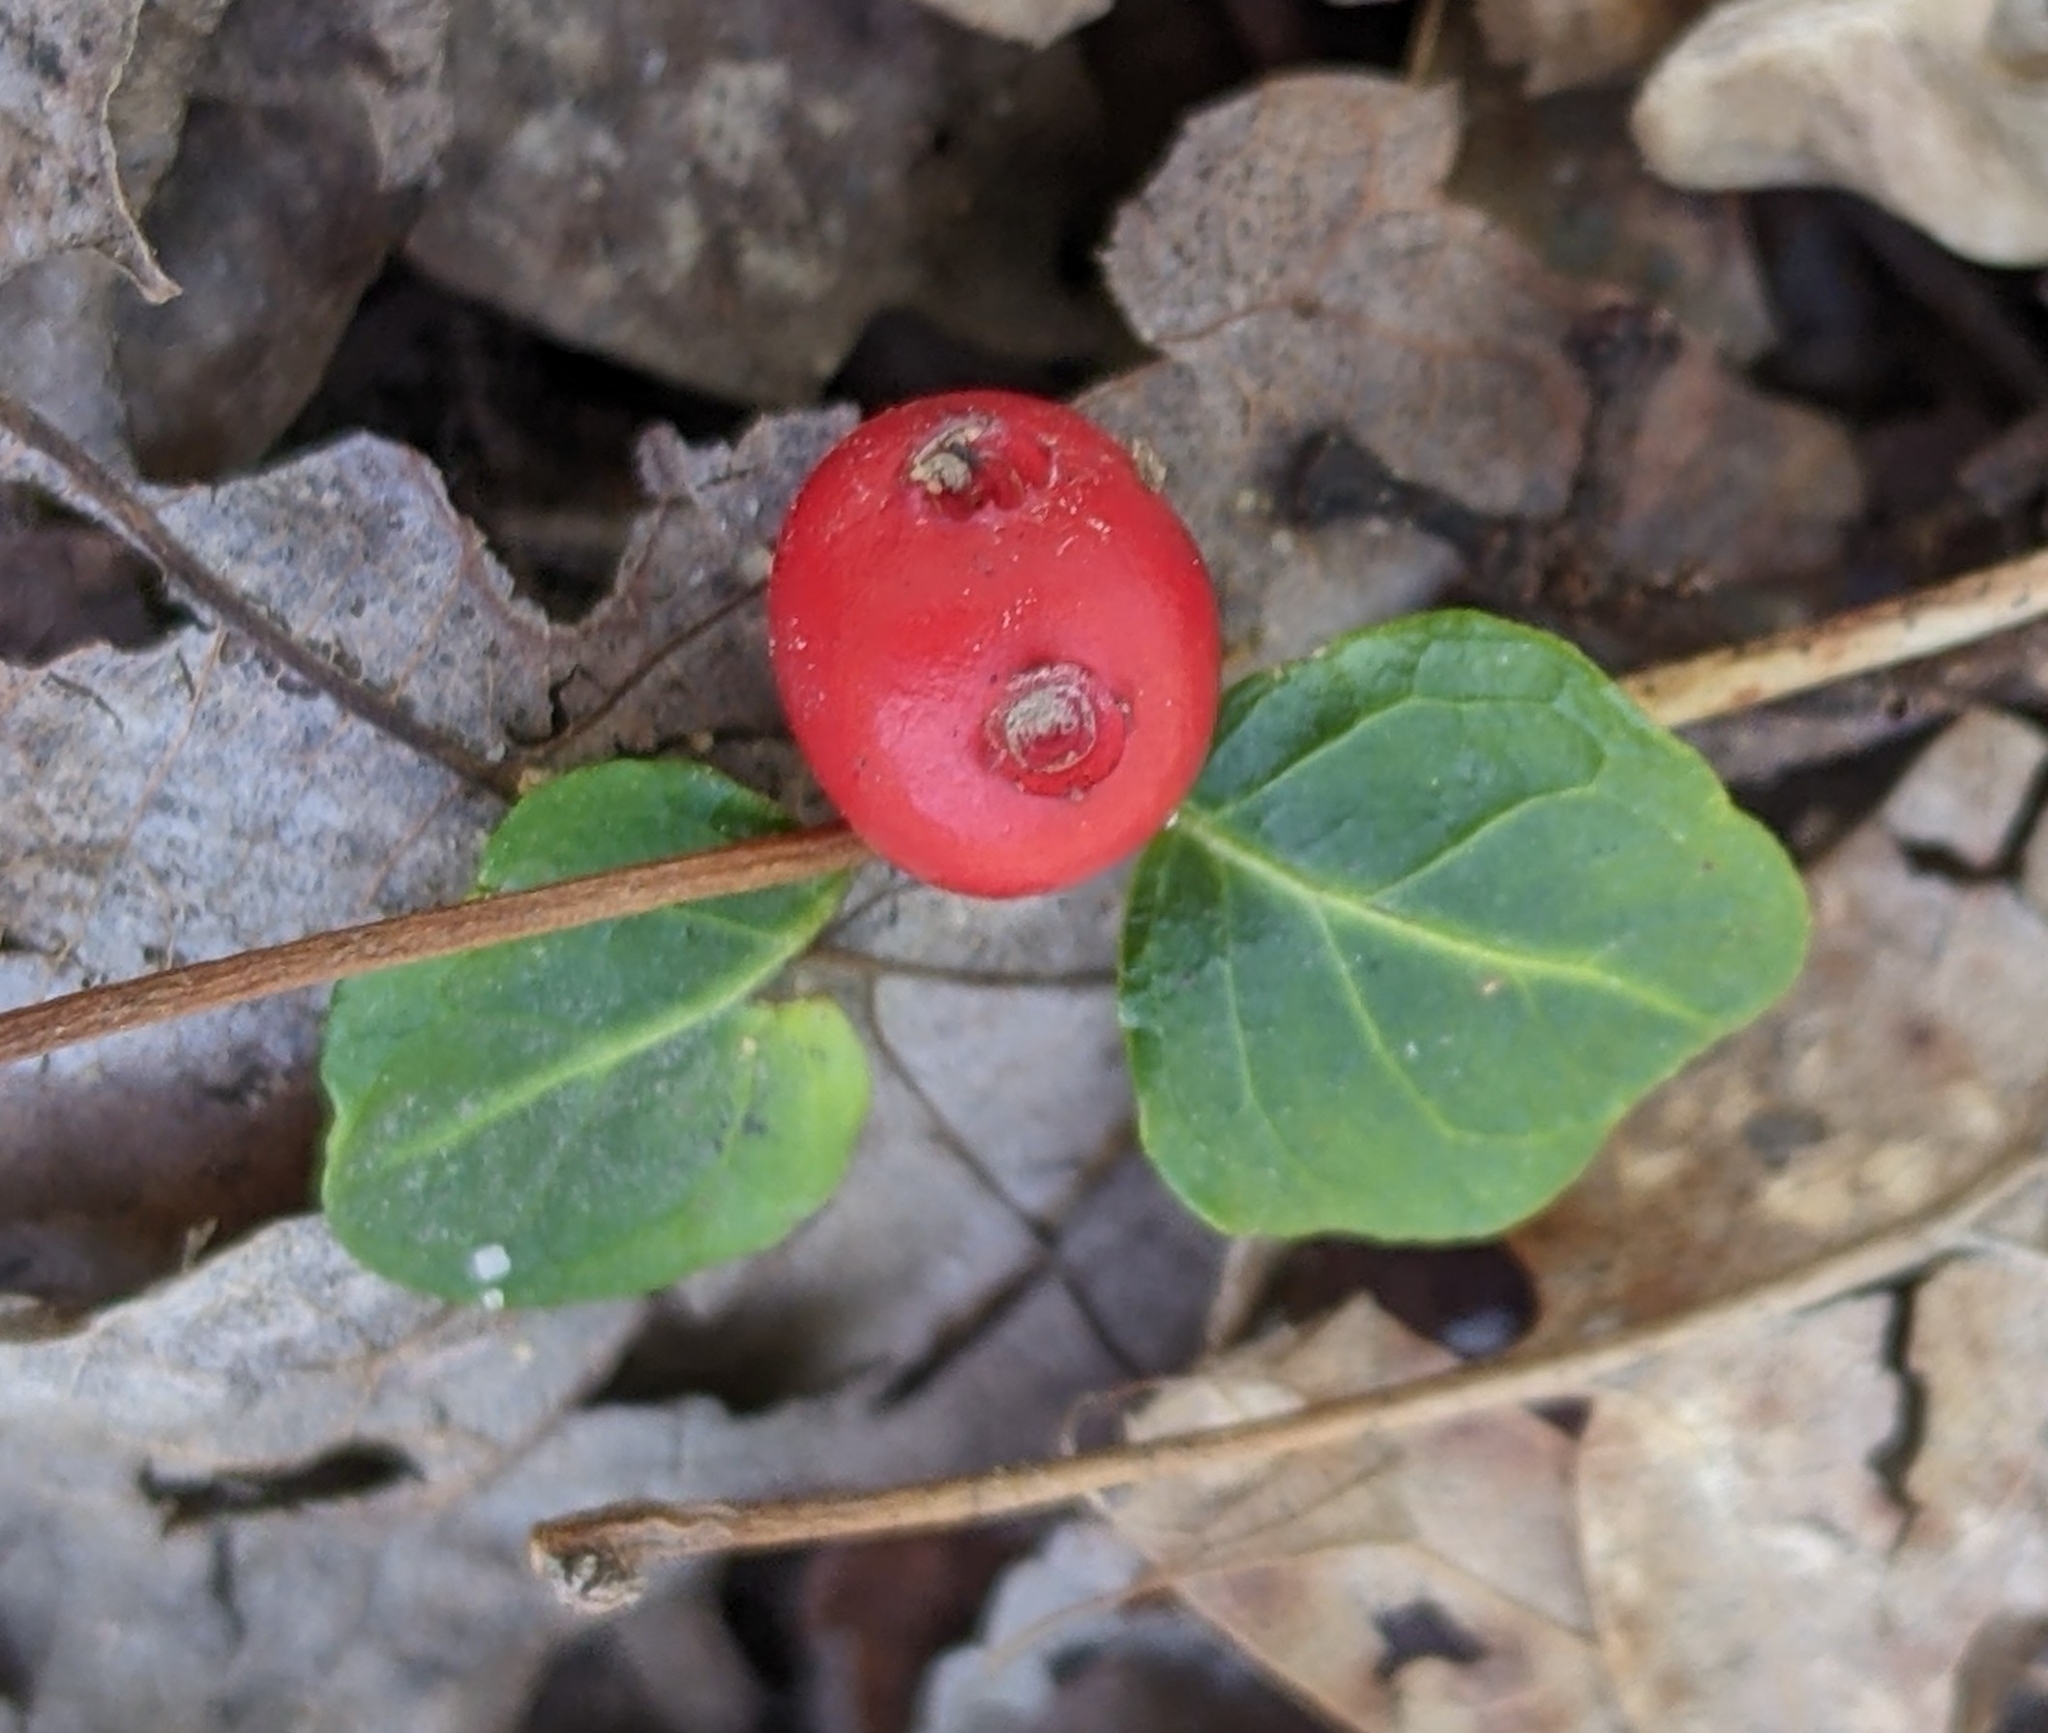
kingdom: Plantae
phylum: Tracheophyta
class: Magnoliopsida
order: Gentianales
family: Rubiaceae
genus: Mitchella
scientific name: Mitchella repens
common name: Partridge-berry
